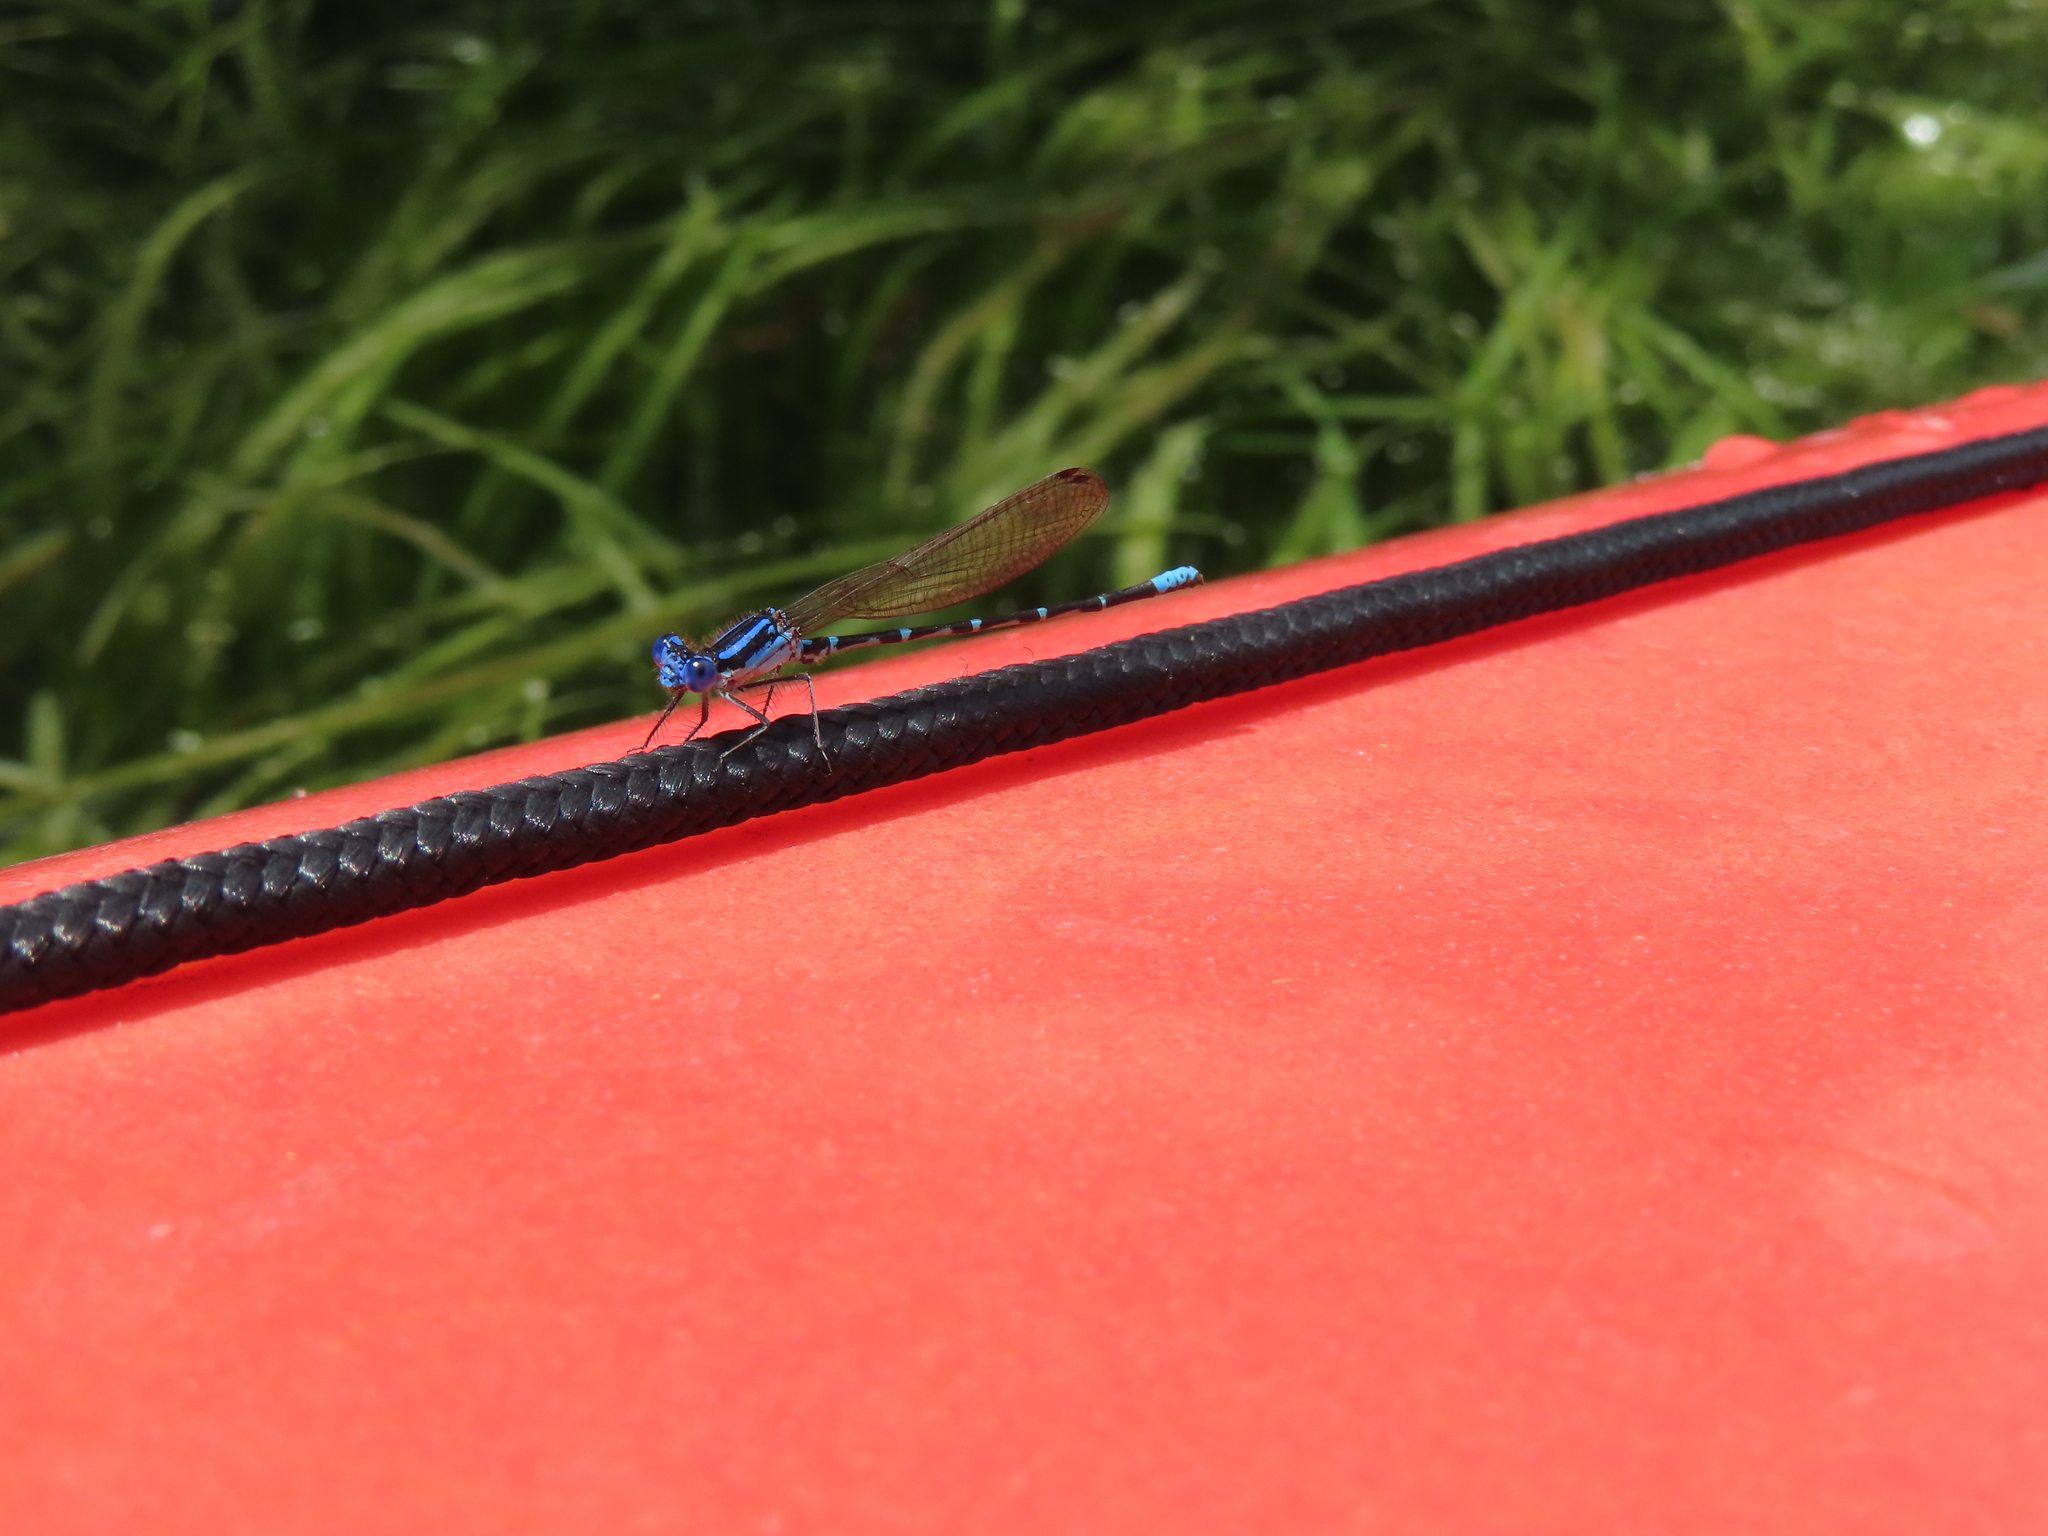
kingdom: Animalia
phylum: Arthropoda
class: Insecta
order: Odonata
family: Coenagrionidae
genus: Argia
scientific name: Argia sedula
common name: Blue-ringed dancer
